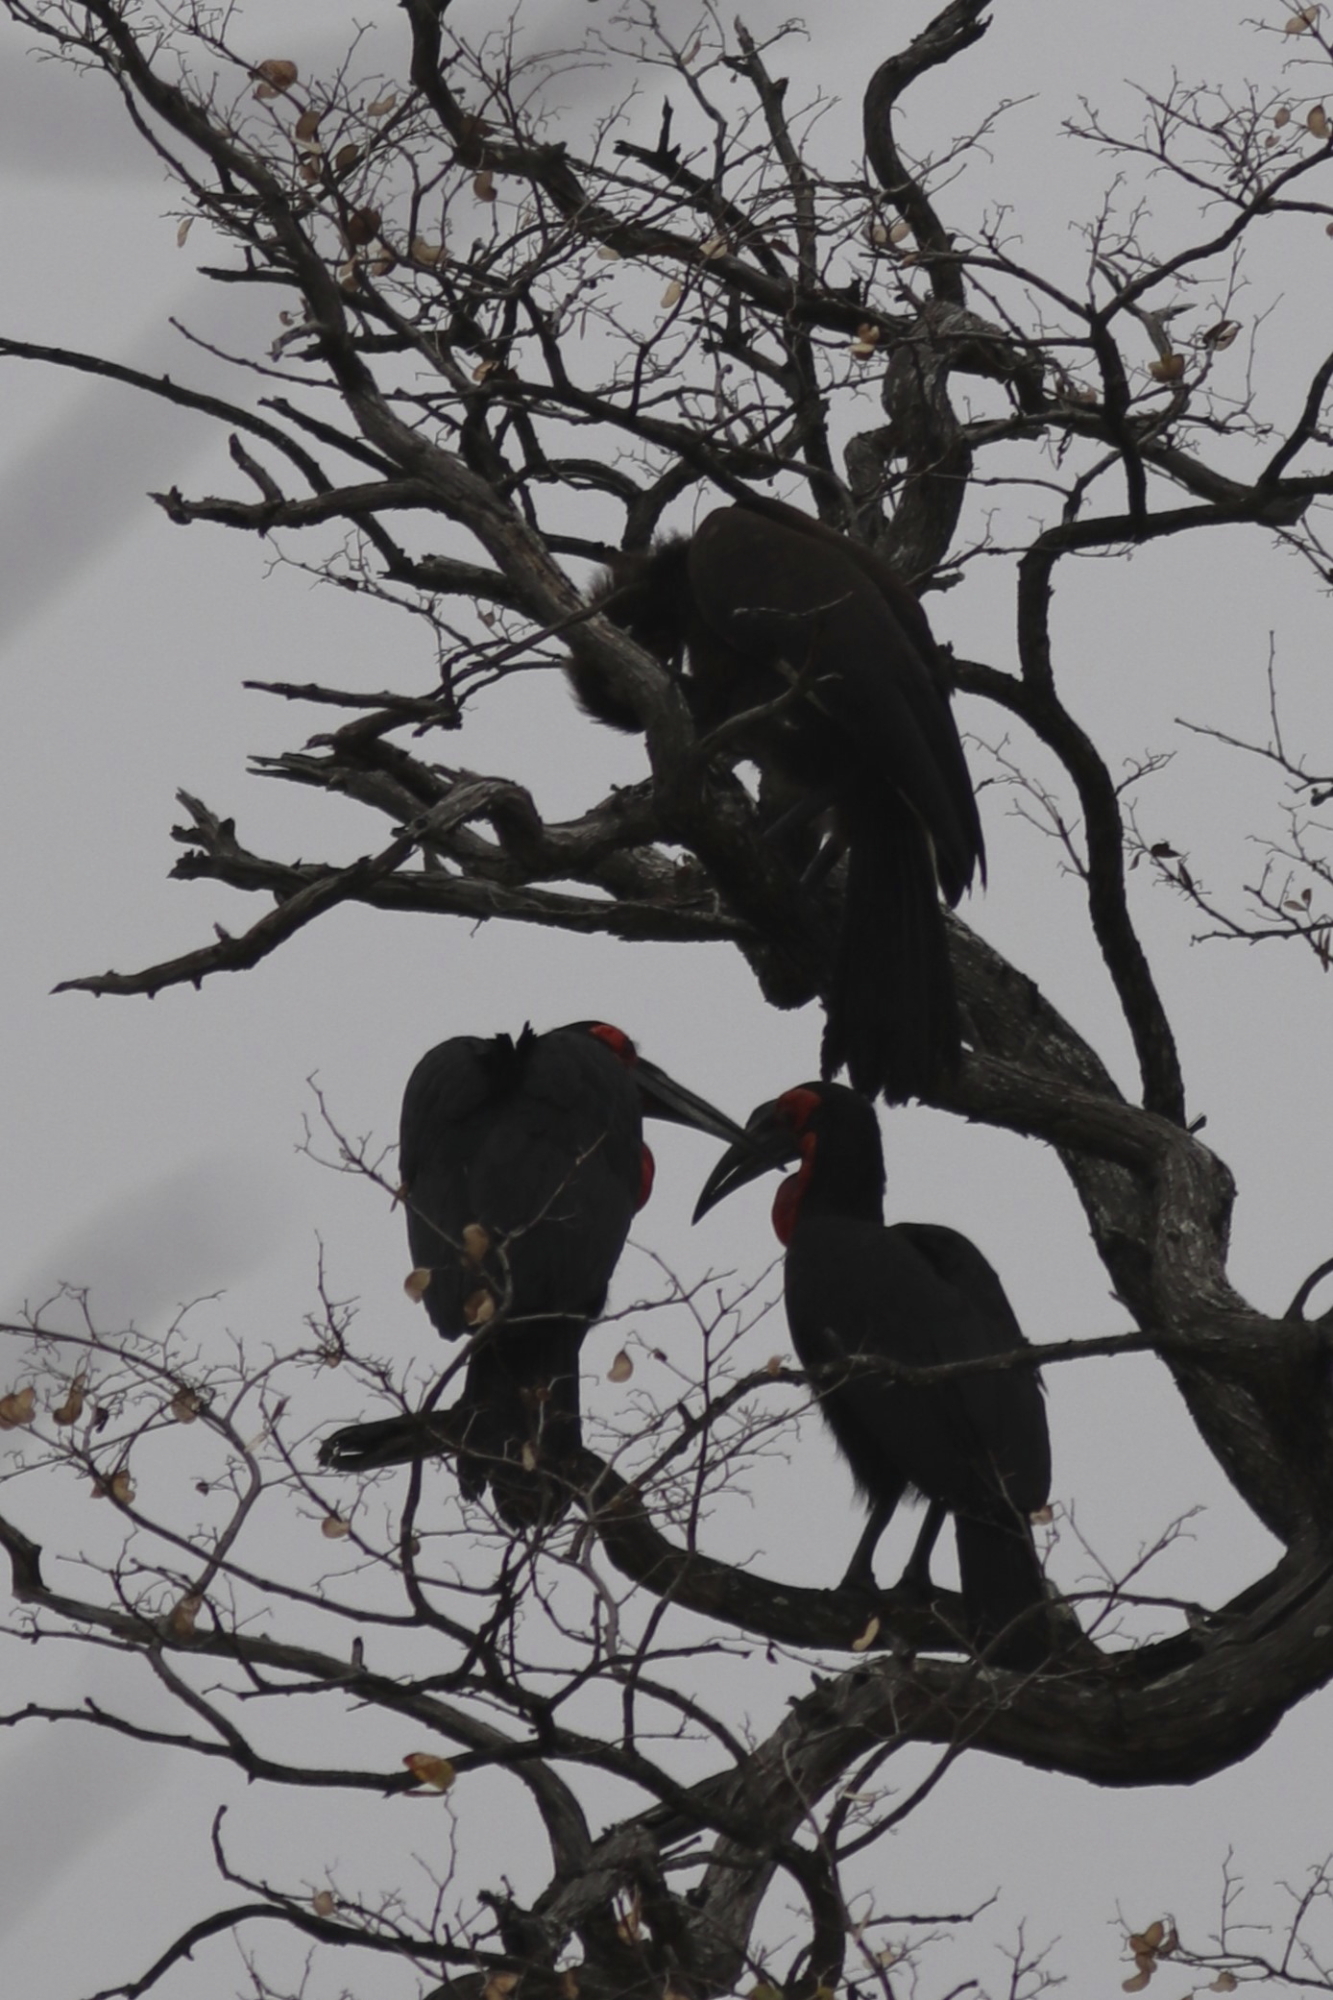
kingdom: Animalia
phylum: Chordata
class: Aves
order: Bucerotiformes
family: Bucorvidae
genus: Bucorvus
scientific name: Bucorvus leadbeateri
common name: Southern ground-hornbill
